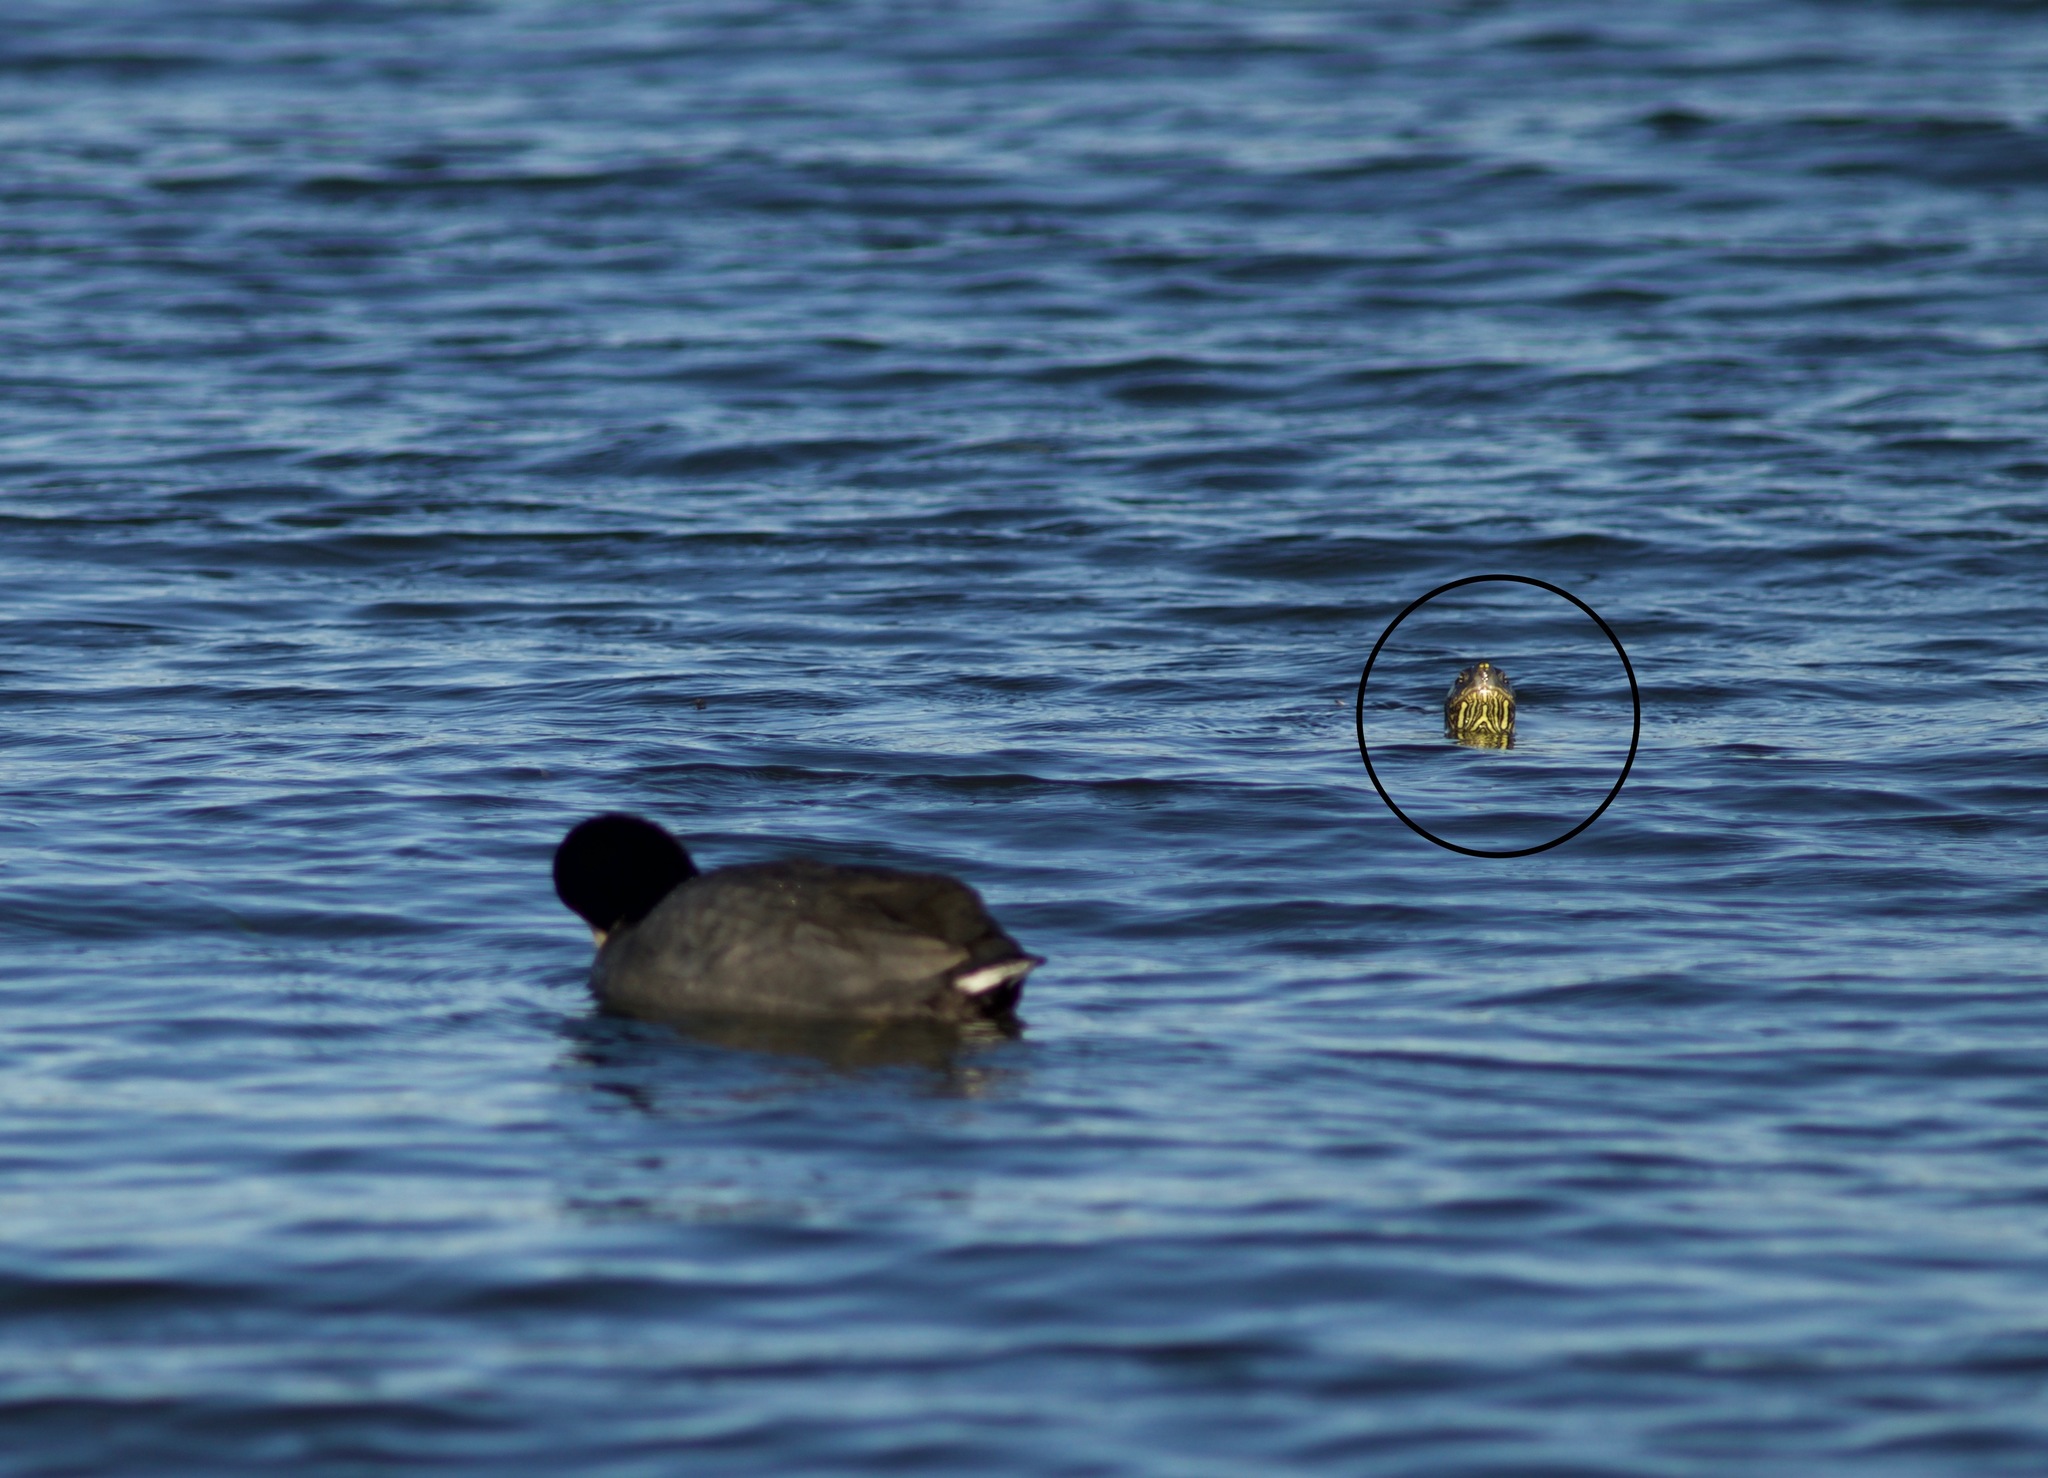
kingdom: Animalia
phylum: Chordata
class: Testudines
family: Emydidae
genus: Trachemys
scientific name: Trachemys scripta
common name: Slider
